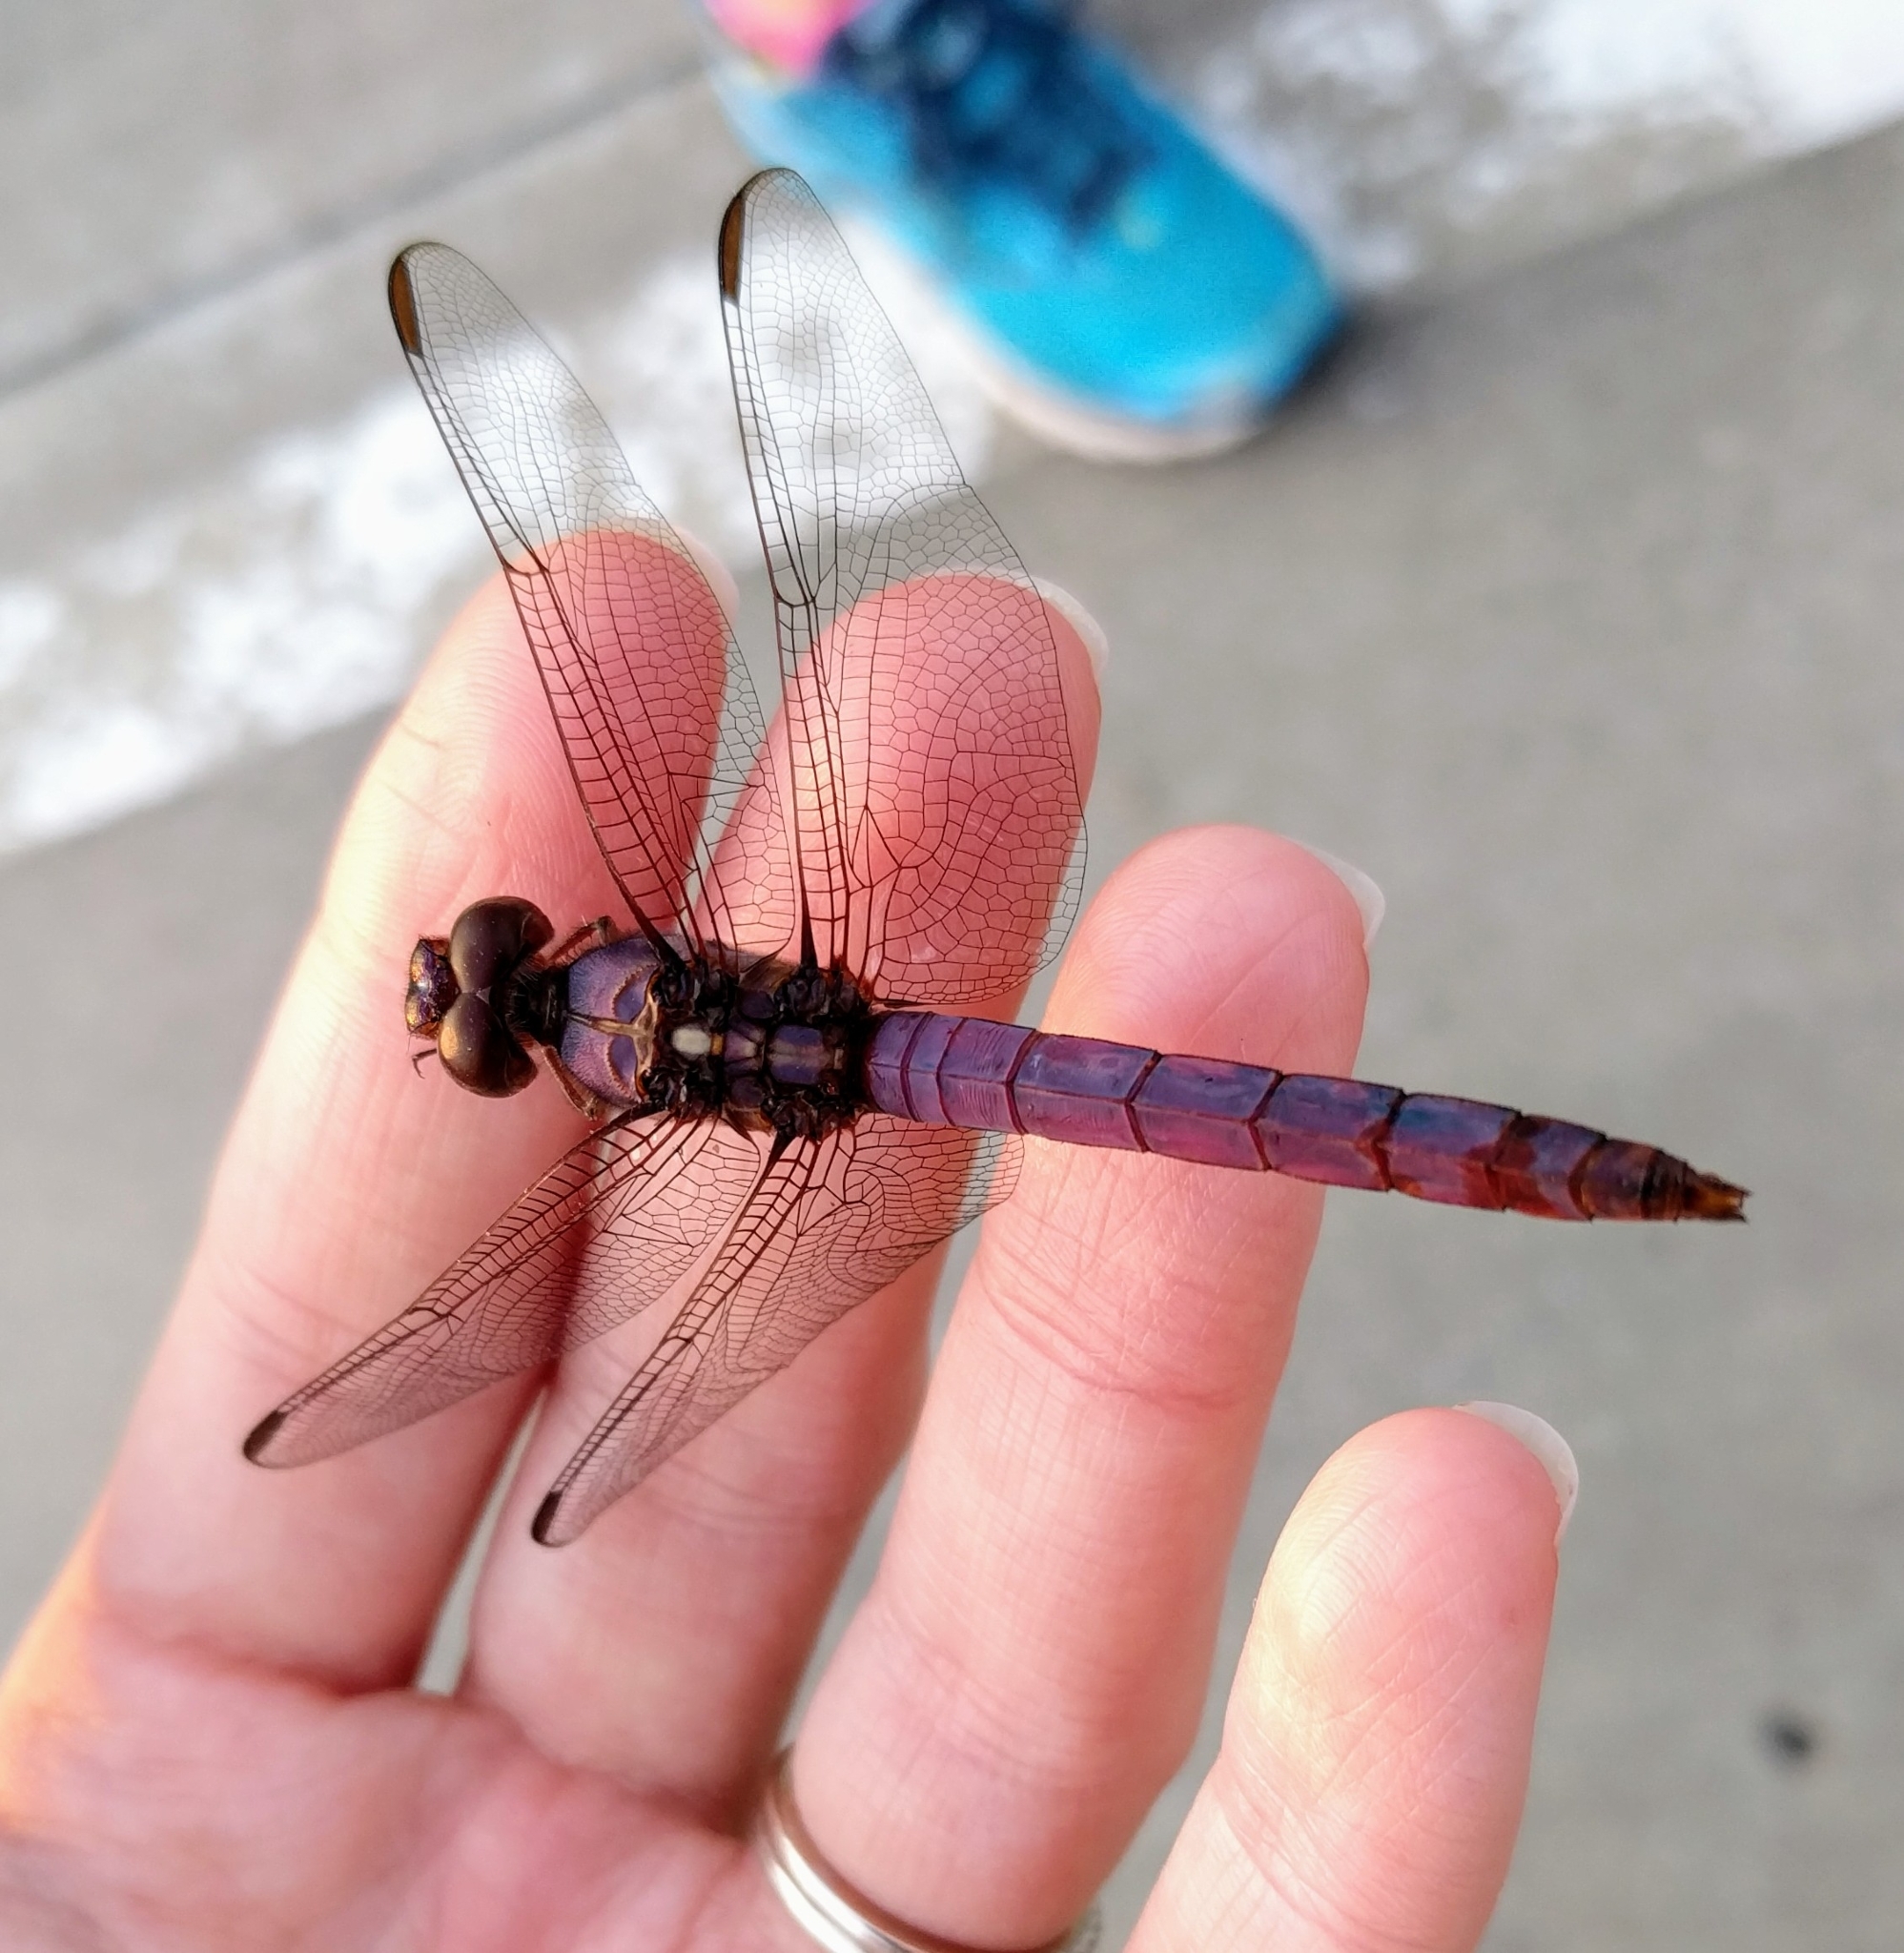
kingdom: Animalia
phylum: Arthropoda
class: Insecta
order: Odonata
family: Libellulidae
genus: Orthemis
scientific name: Orthemis ferruginea
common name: Roseate skimmer
